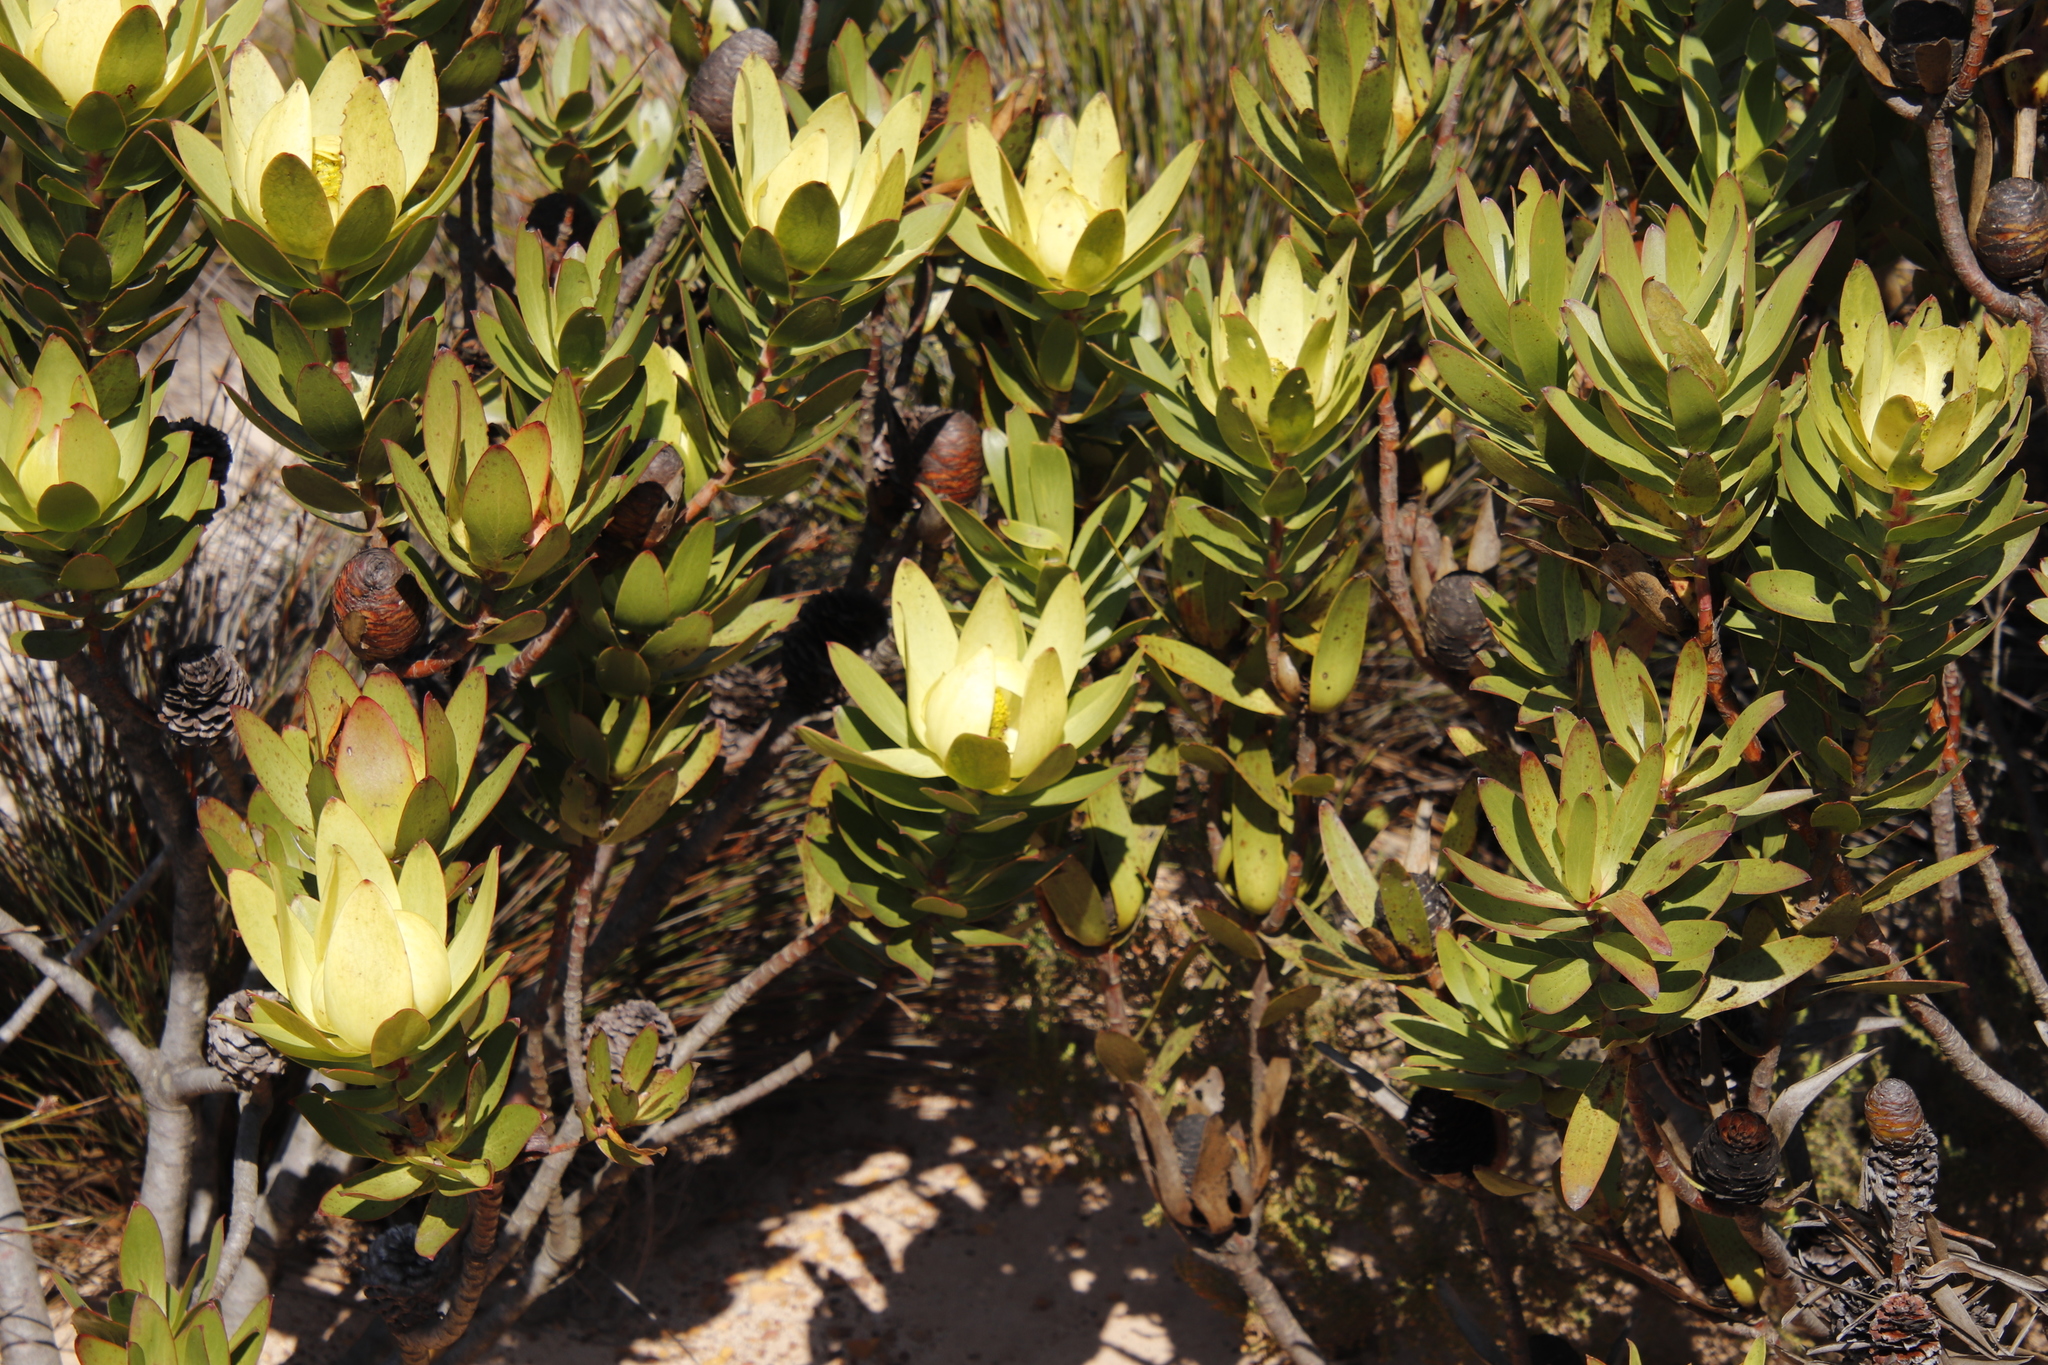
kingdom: Plantae
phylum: Tracheophyta
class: Magnoliopsida
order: Proteales
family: Proteaceae
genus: Leucadendron
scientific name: Leucadendron gandogeri
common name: Broad-leaf conebush
